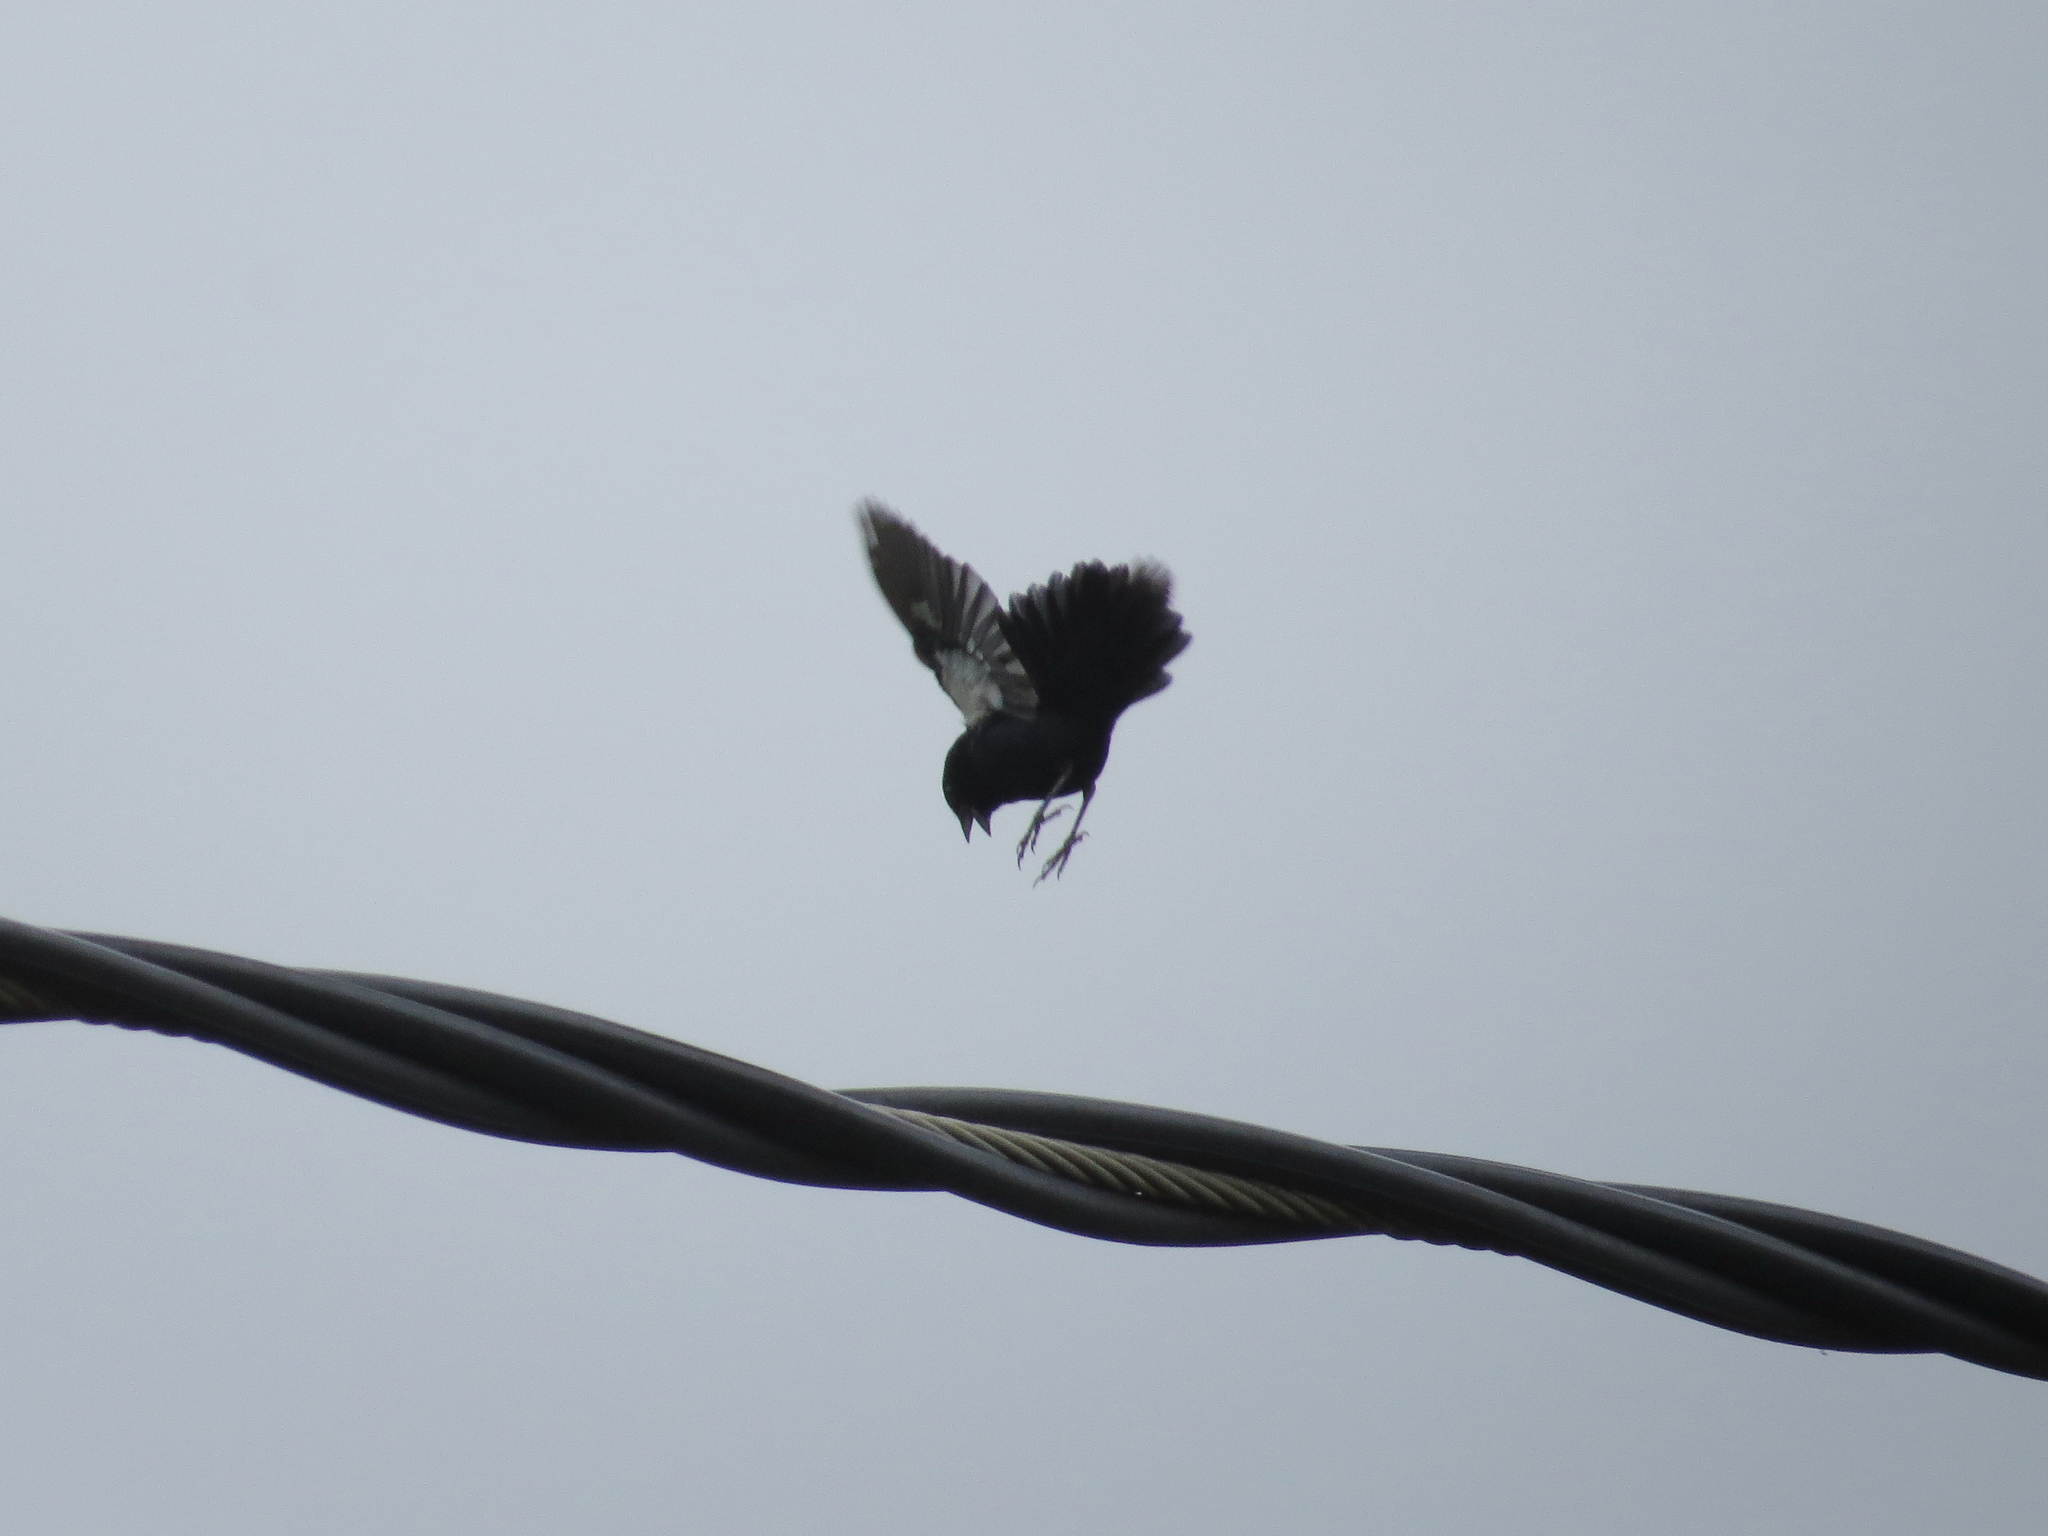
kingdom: Animalia
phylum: Chordata
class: Aves
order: Passeriformes
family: Thraupidae
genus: Volatinia
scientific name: Volatinia jacarina
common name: Blue-black grassquit
